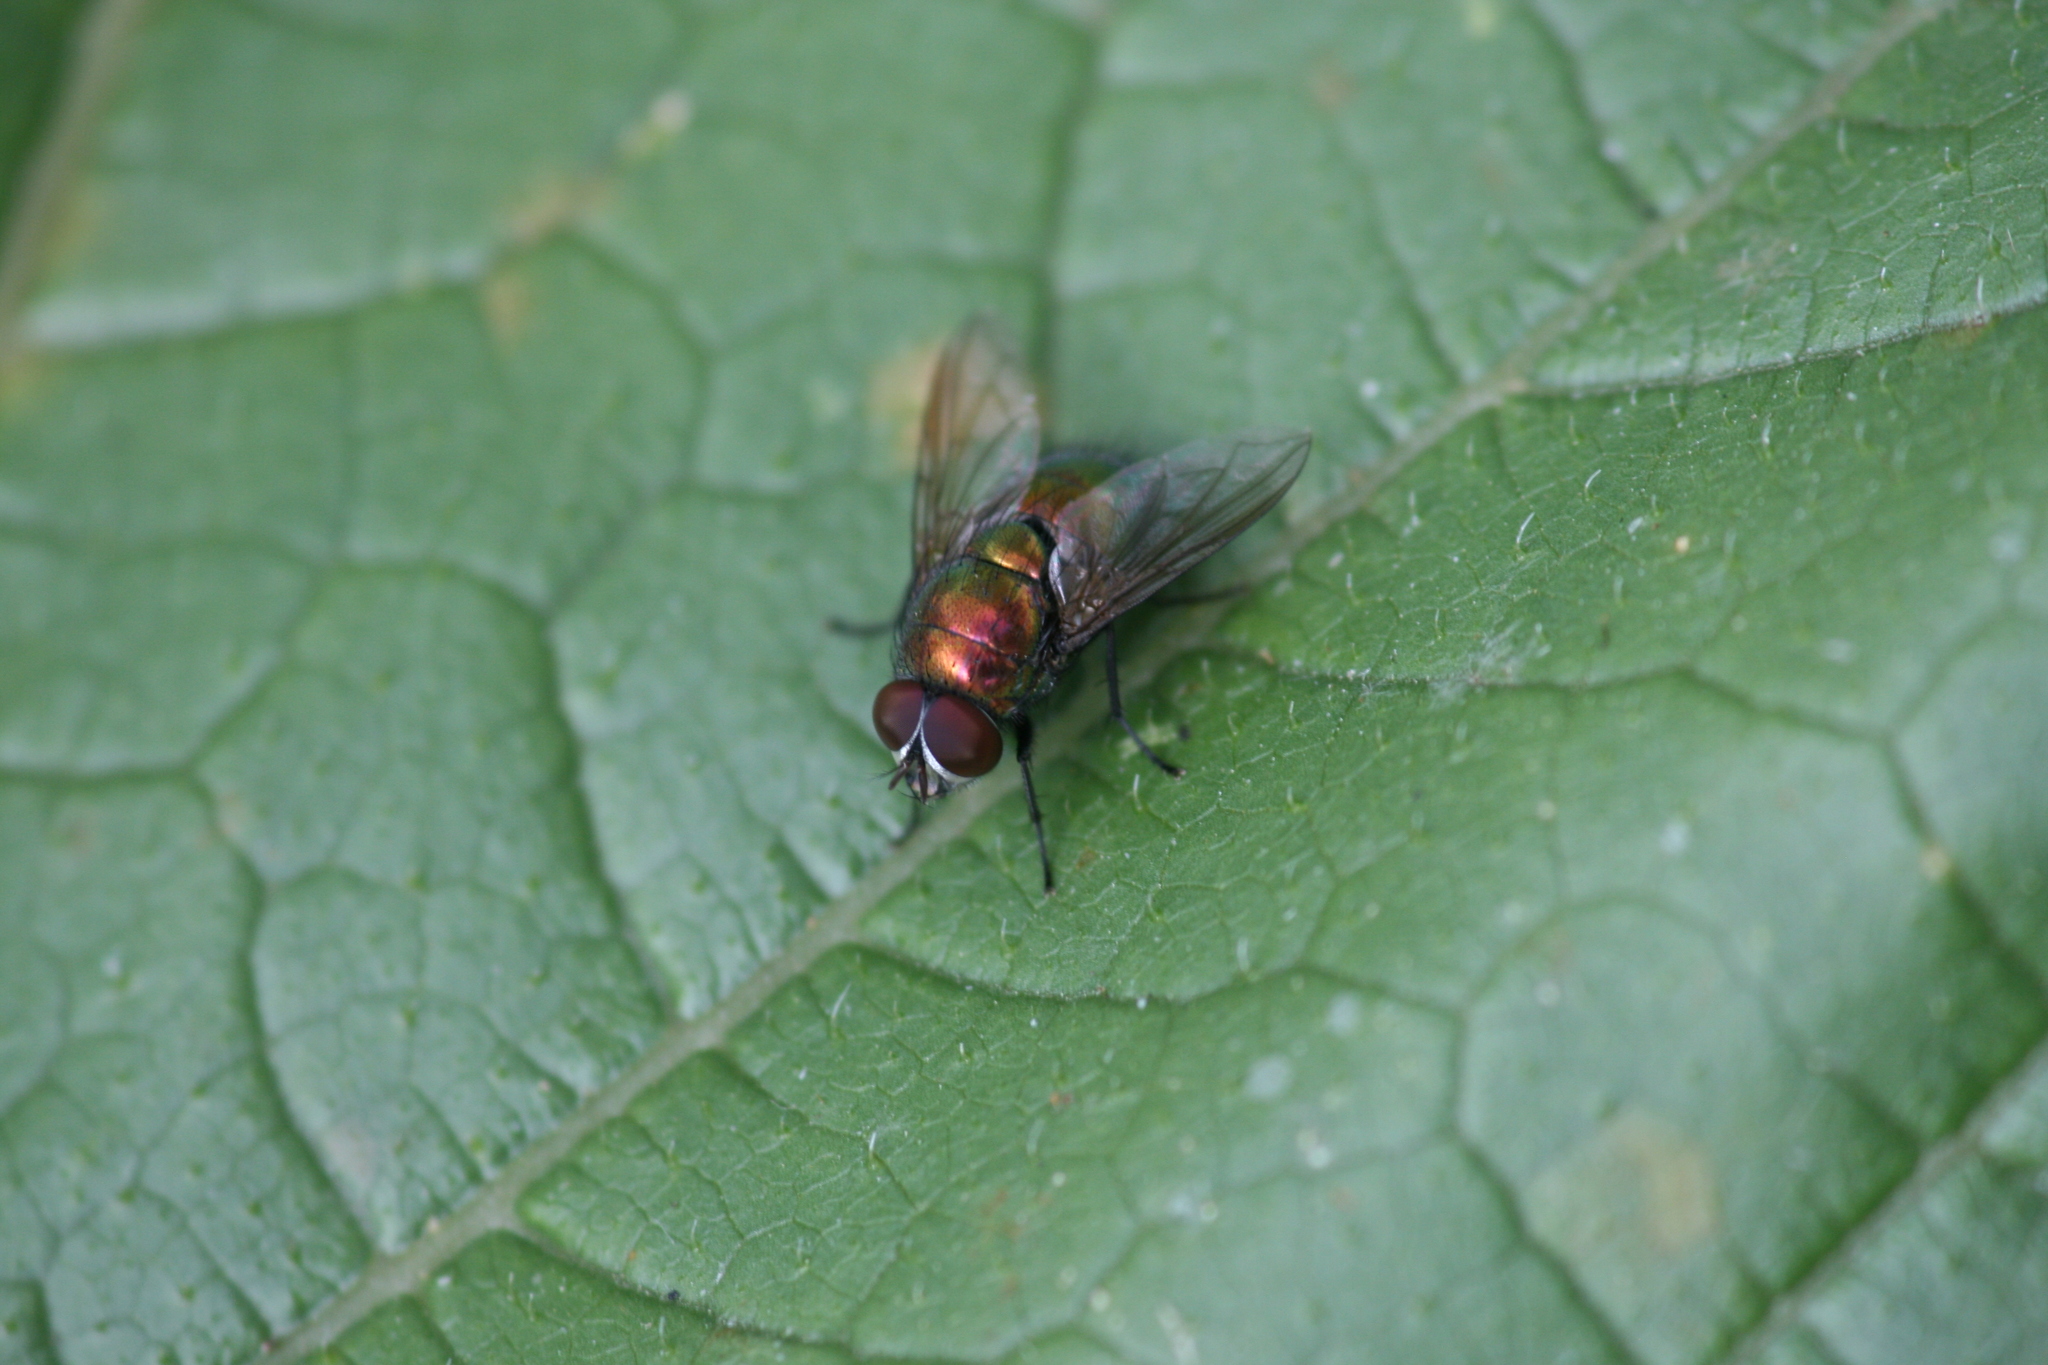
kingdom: Animalia
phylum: Arthropoda
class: Insecta
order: Diptera
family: Calliphoridae
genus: Lucilia
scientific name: Lucilia caesar
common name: Blow fly
